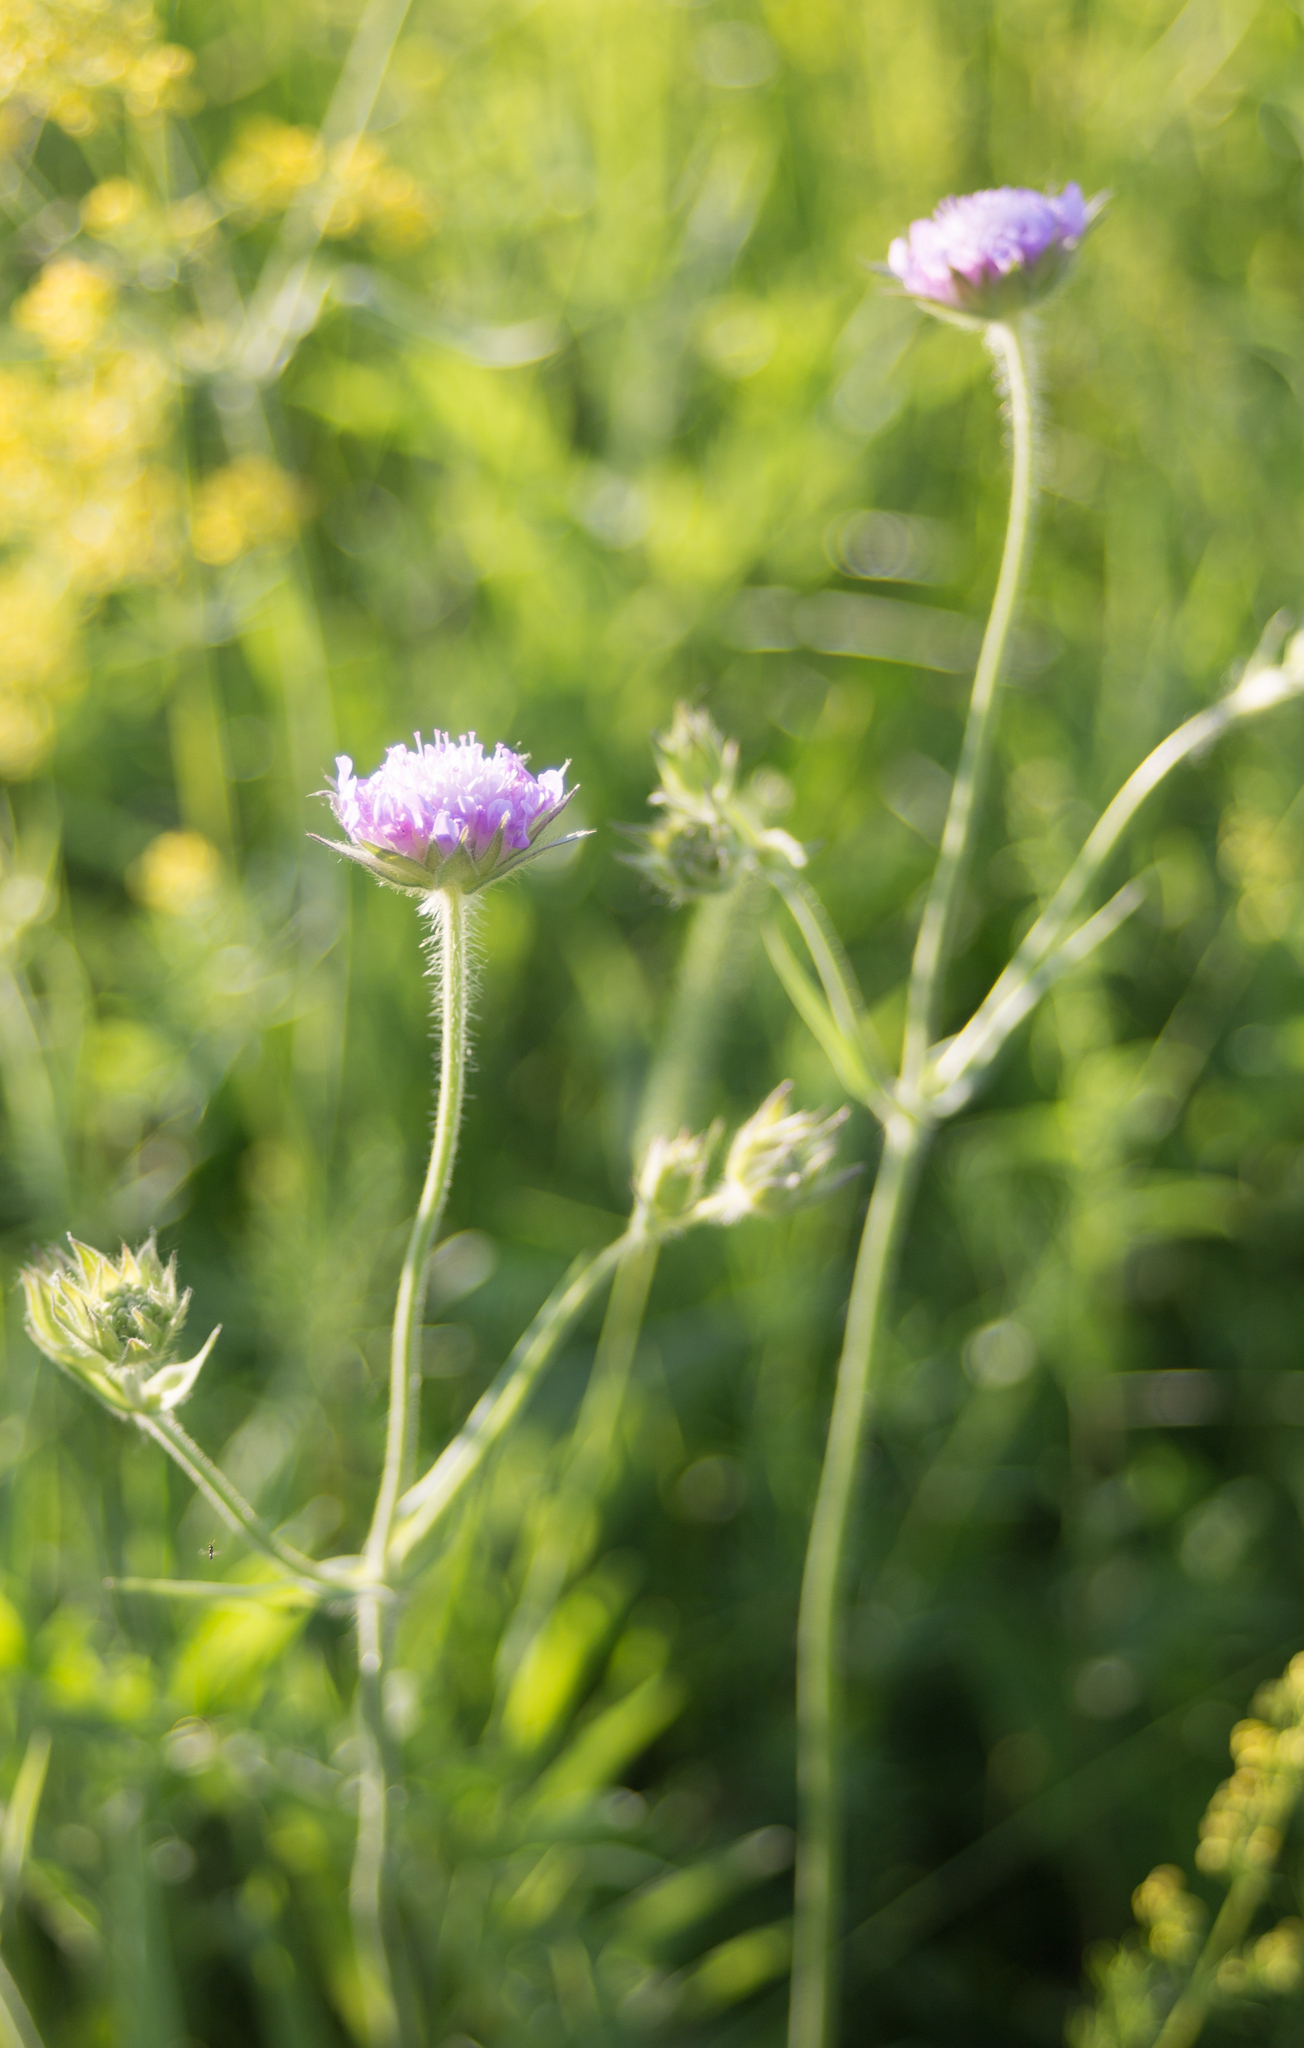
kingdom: Plantae
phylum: Tracheophyta
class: Magnoliopsida
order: Dipsacales
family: Caprifoliaceae
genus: Knautia
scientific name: Knautia arvensis
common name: Field scabiosa
